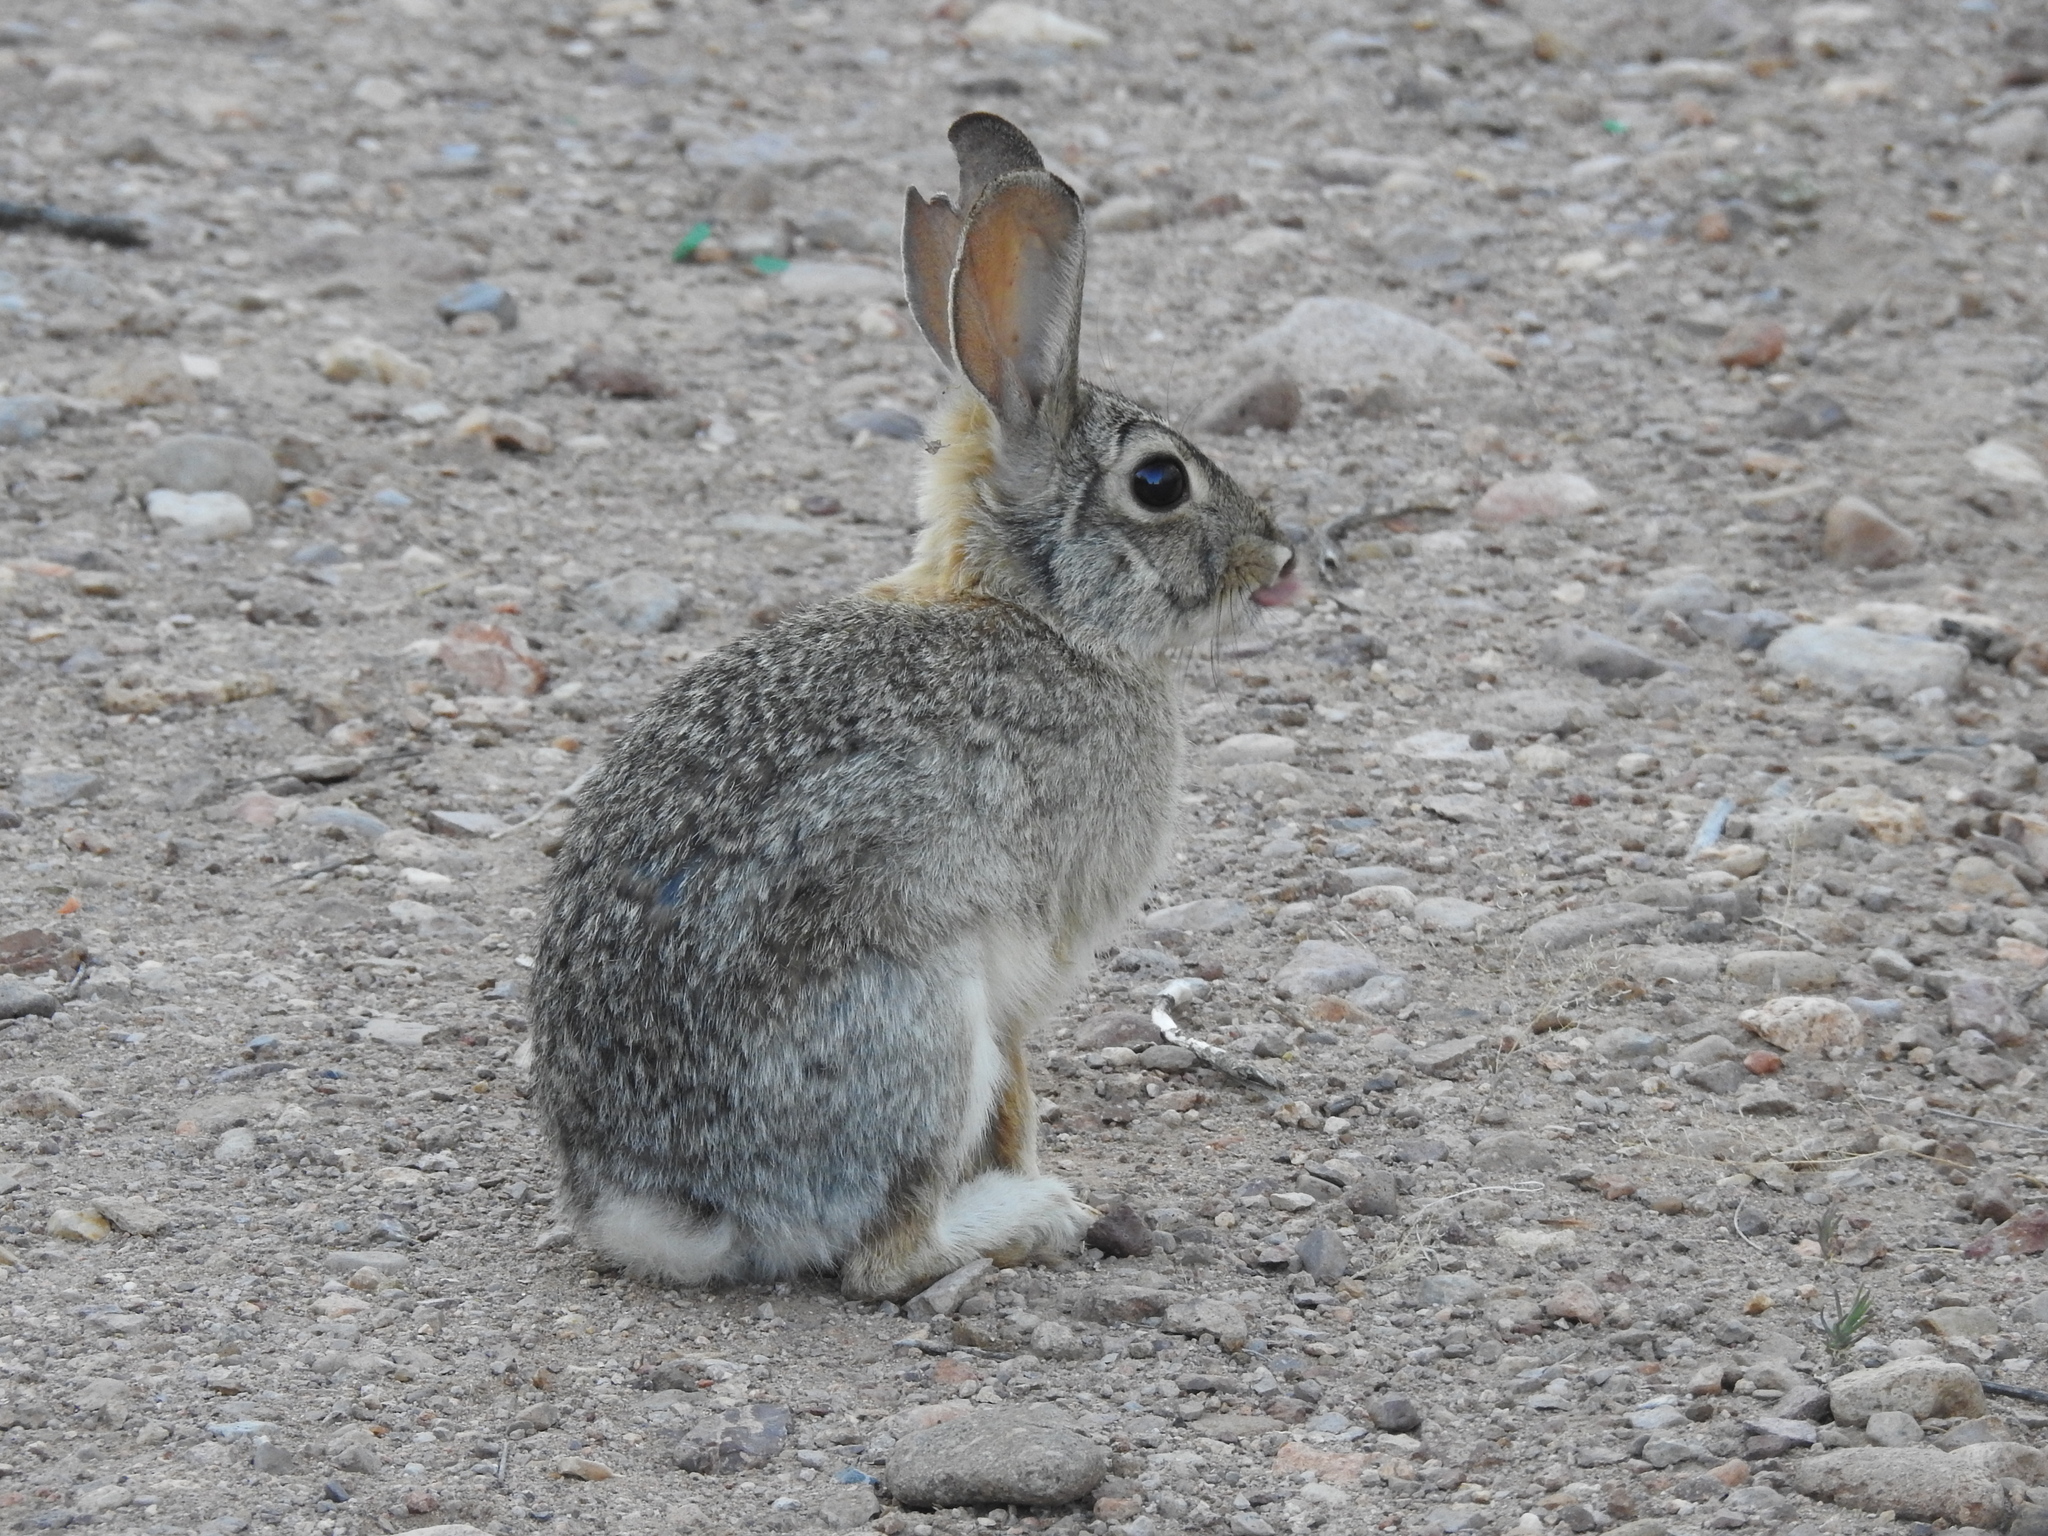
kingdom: Animalia
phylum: Chordata
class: Mammalia
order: Lagomorpha
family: Leporidae
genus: Sylvilagus
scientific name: Sylvilagus audubonii
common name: Desert cottontail
